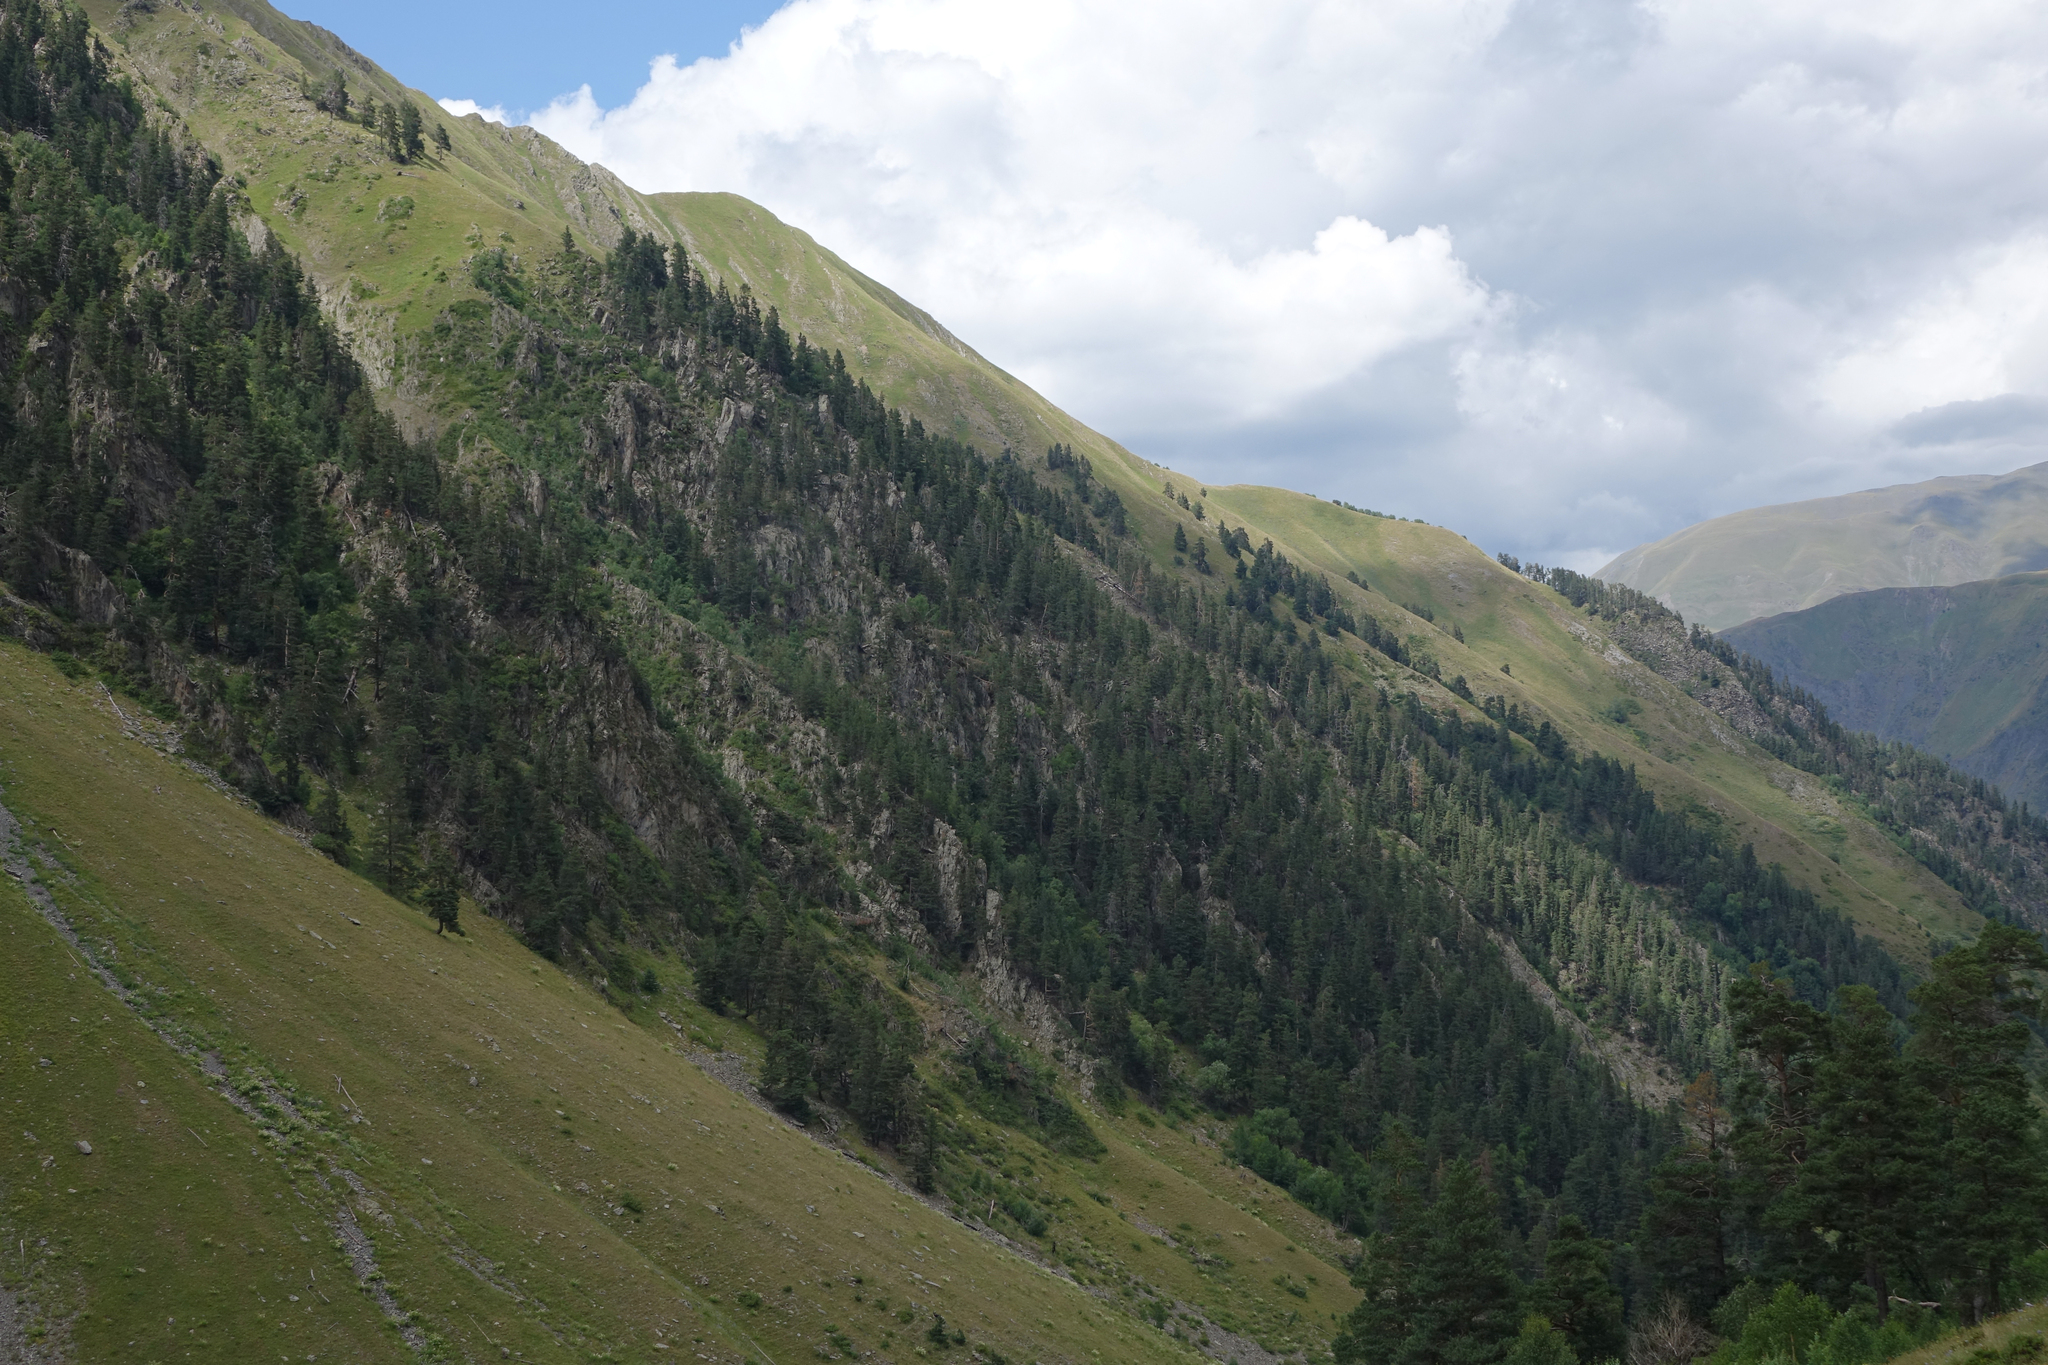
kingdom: Plantae
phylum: Tracheophyta
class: Pinopsida
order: Pinales
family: Pinaceae
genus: Pinus
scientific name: Pinus sylvestris
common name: Scots pine
